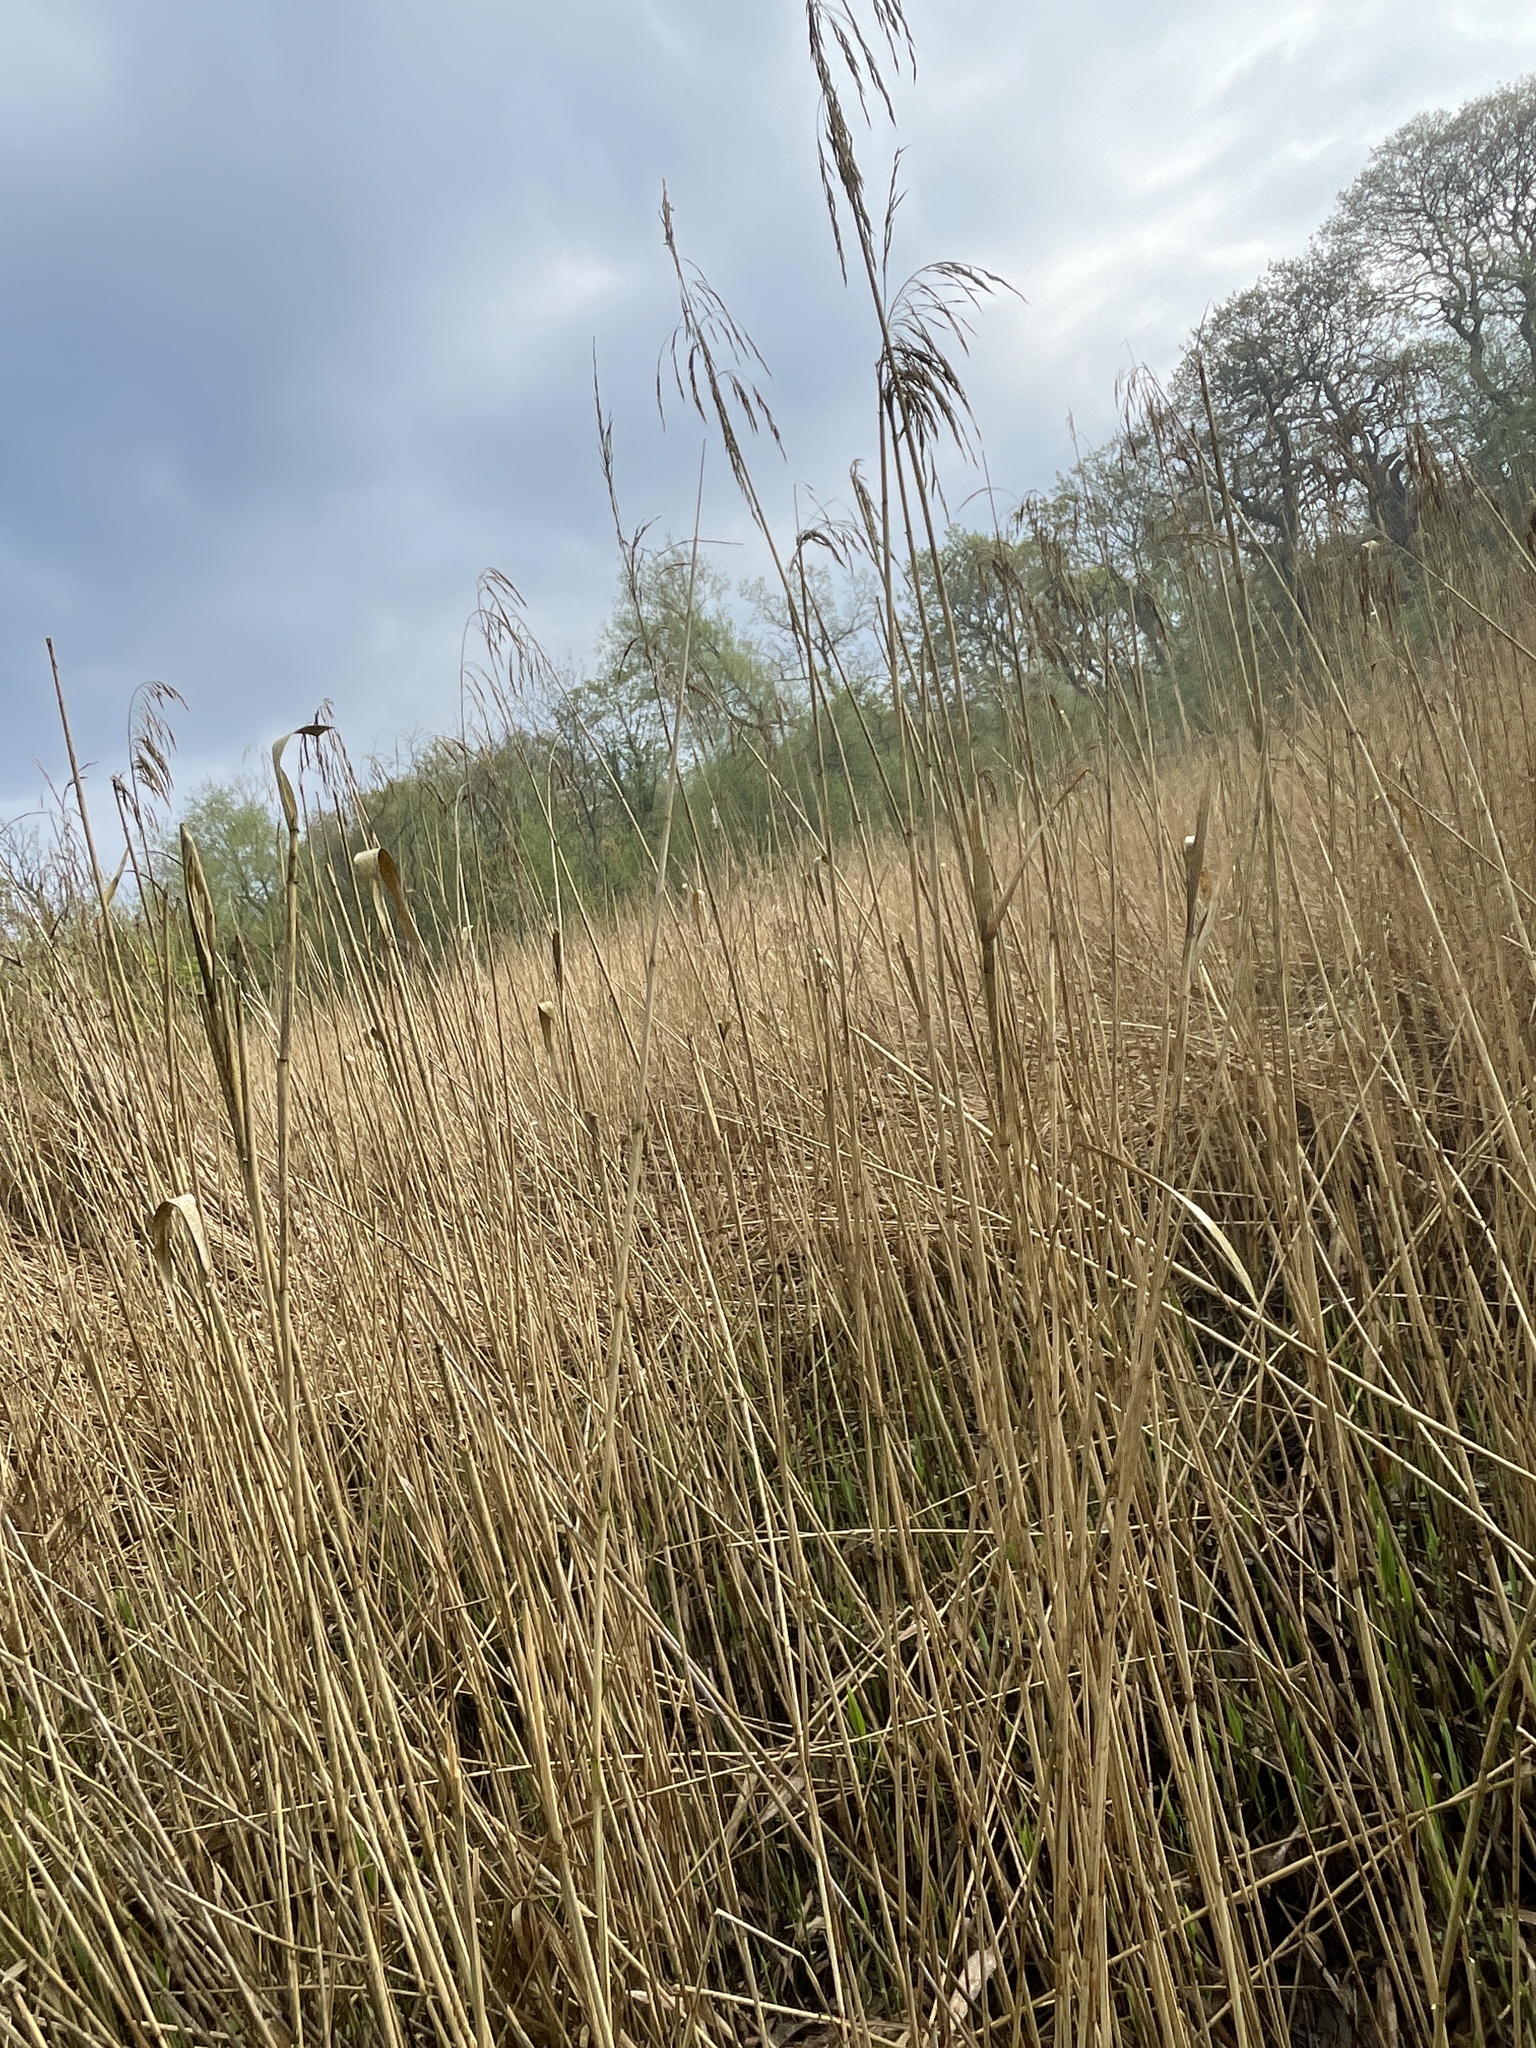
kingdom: Plantae
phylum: Tracheophyta
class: Liliopsida
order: Poales
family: Poaceae
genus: Phragmites
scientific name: Phragmites australis
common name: Common reed
